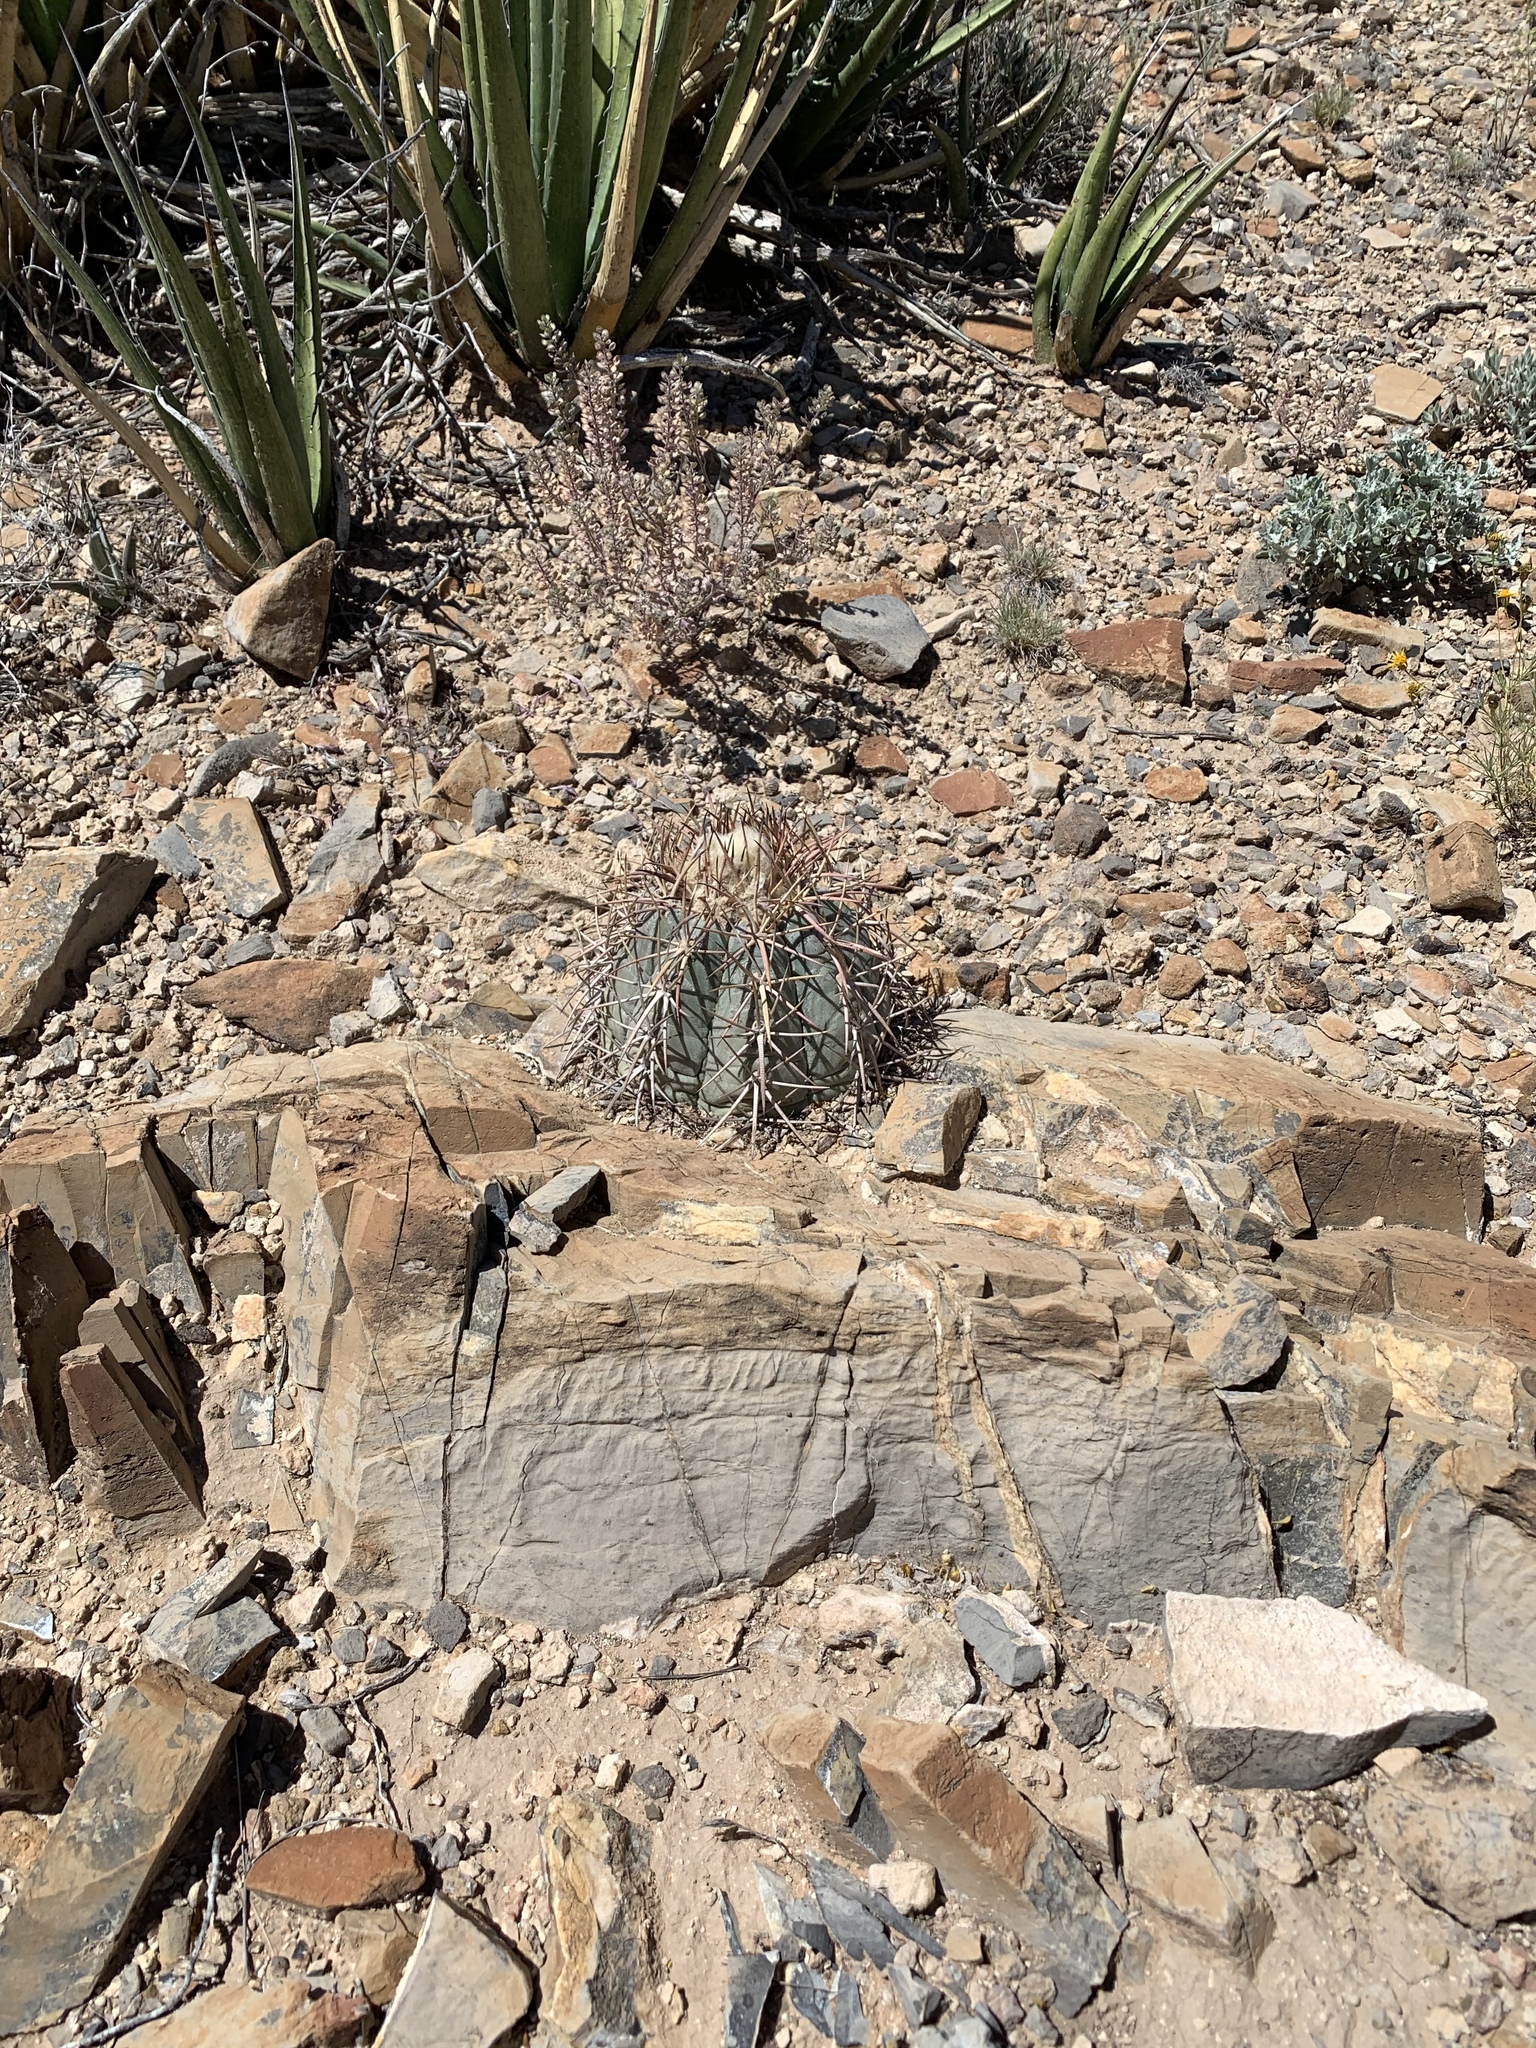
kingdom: Plantae
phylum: Tracheophyta
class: Magnoliopsida
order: Caryophyllales
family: Cactaceae
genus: Echinocactus
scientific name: Echinocactus horizonthalonius
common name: Devilshead
